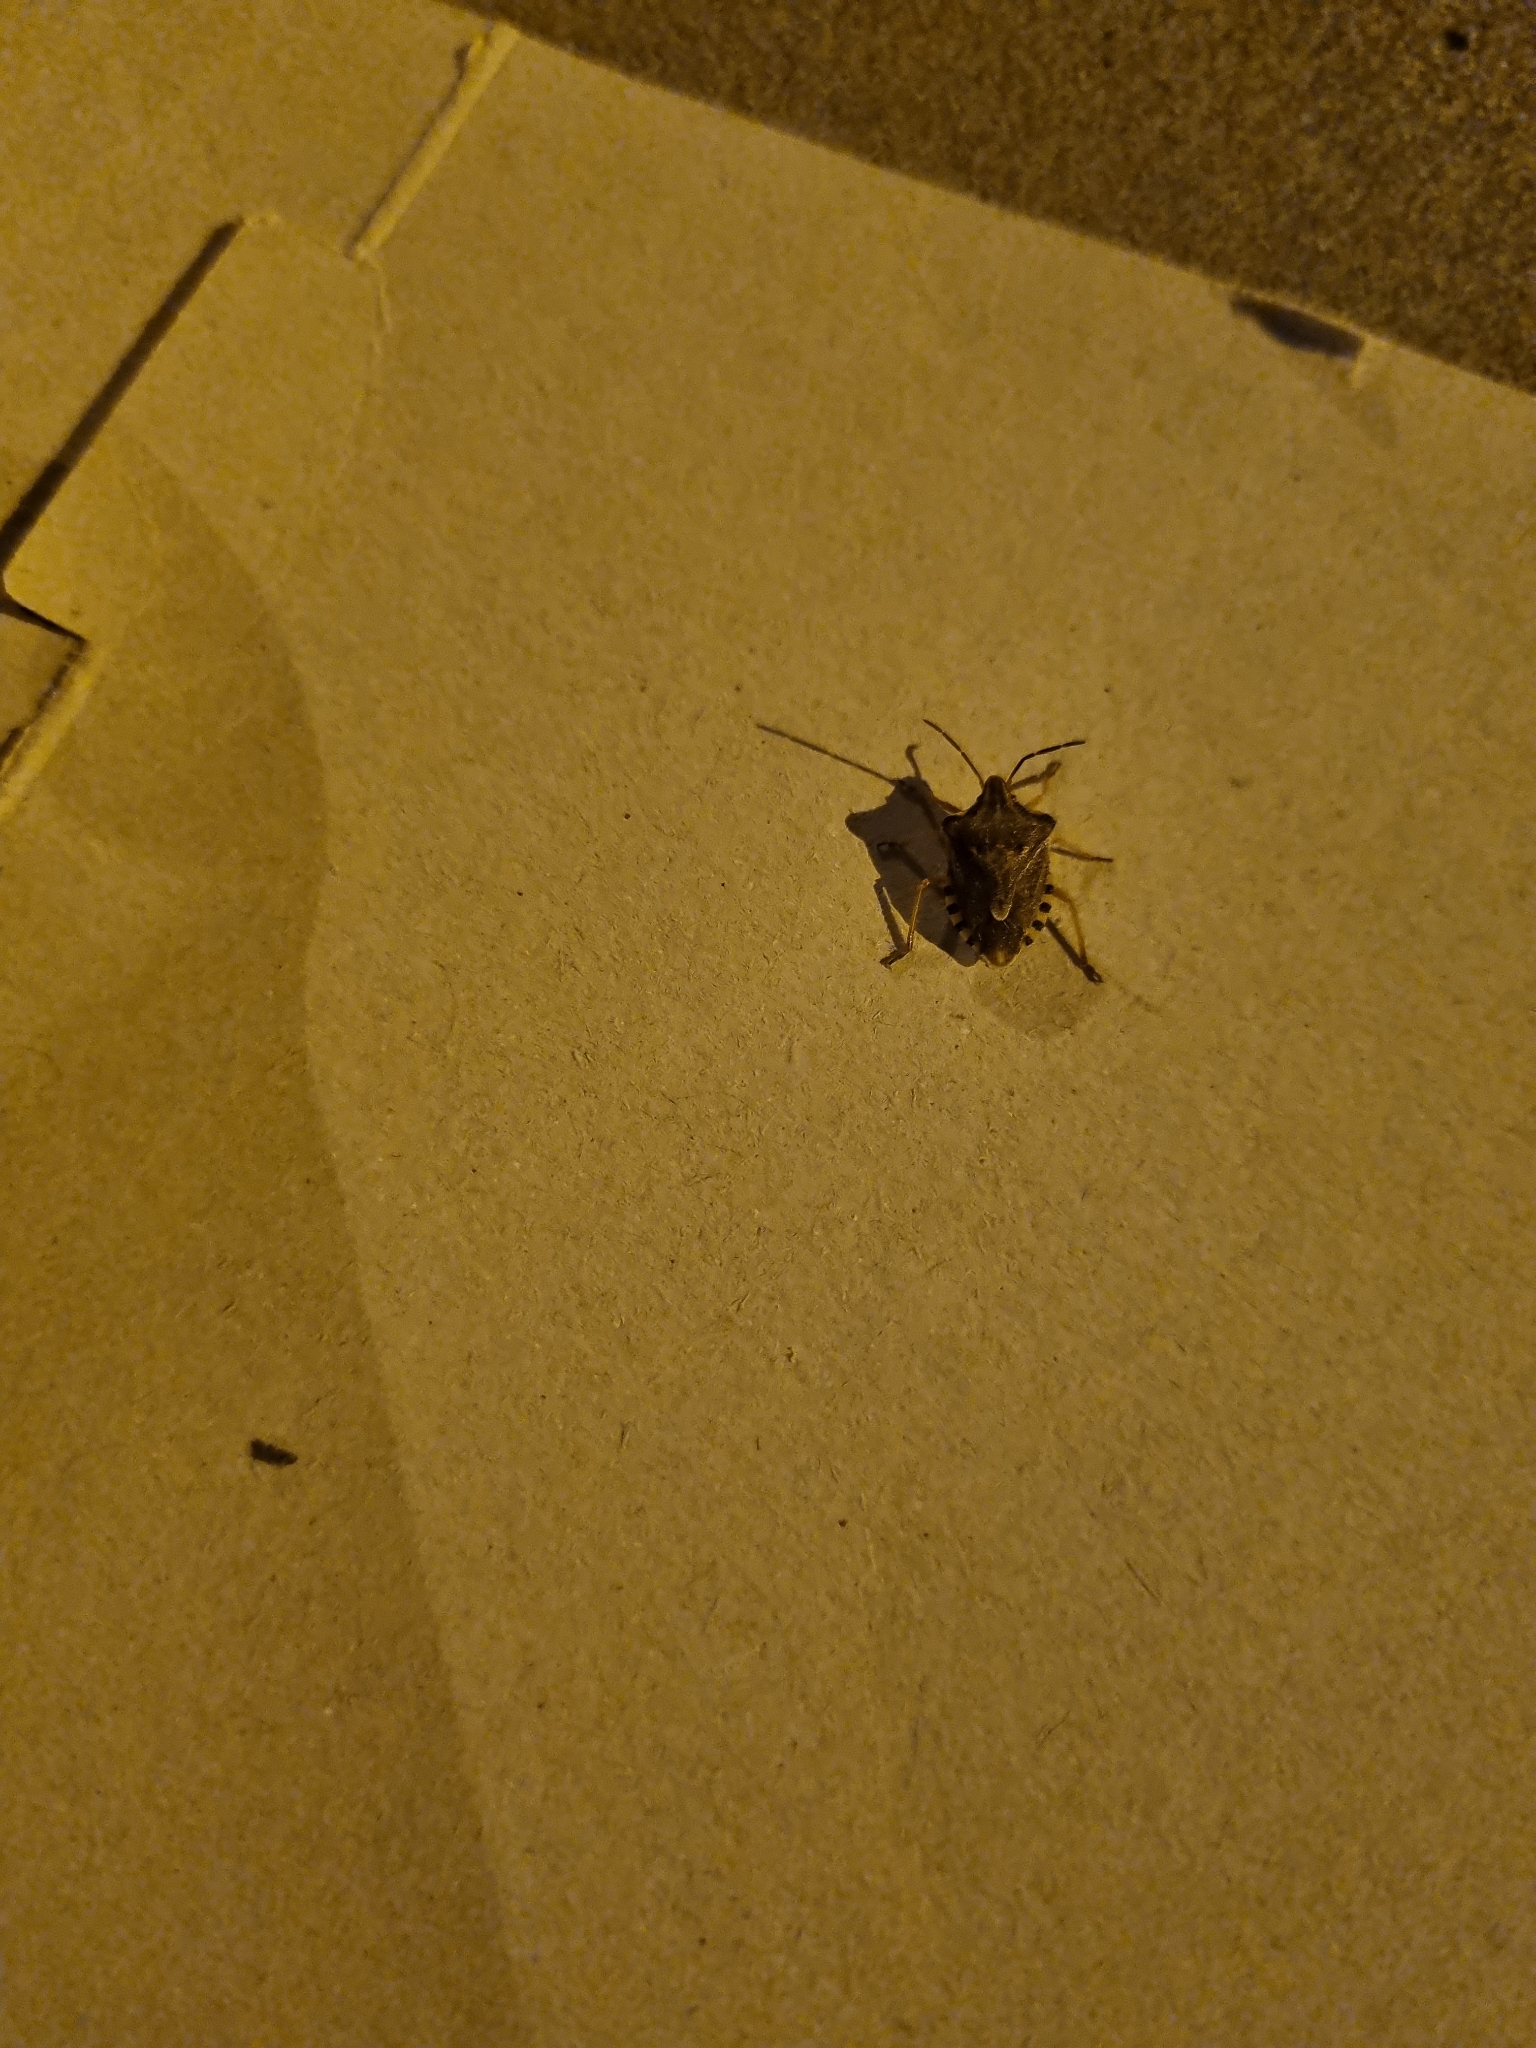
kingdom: Animalia
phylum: Arthropoda
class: Insecta
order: Hemiptera
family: Miridae
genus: Orthops
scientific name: Orthops kalmii
